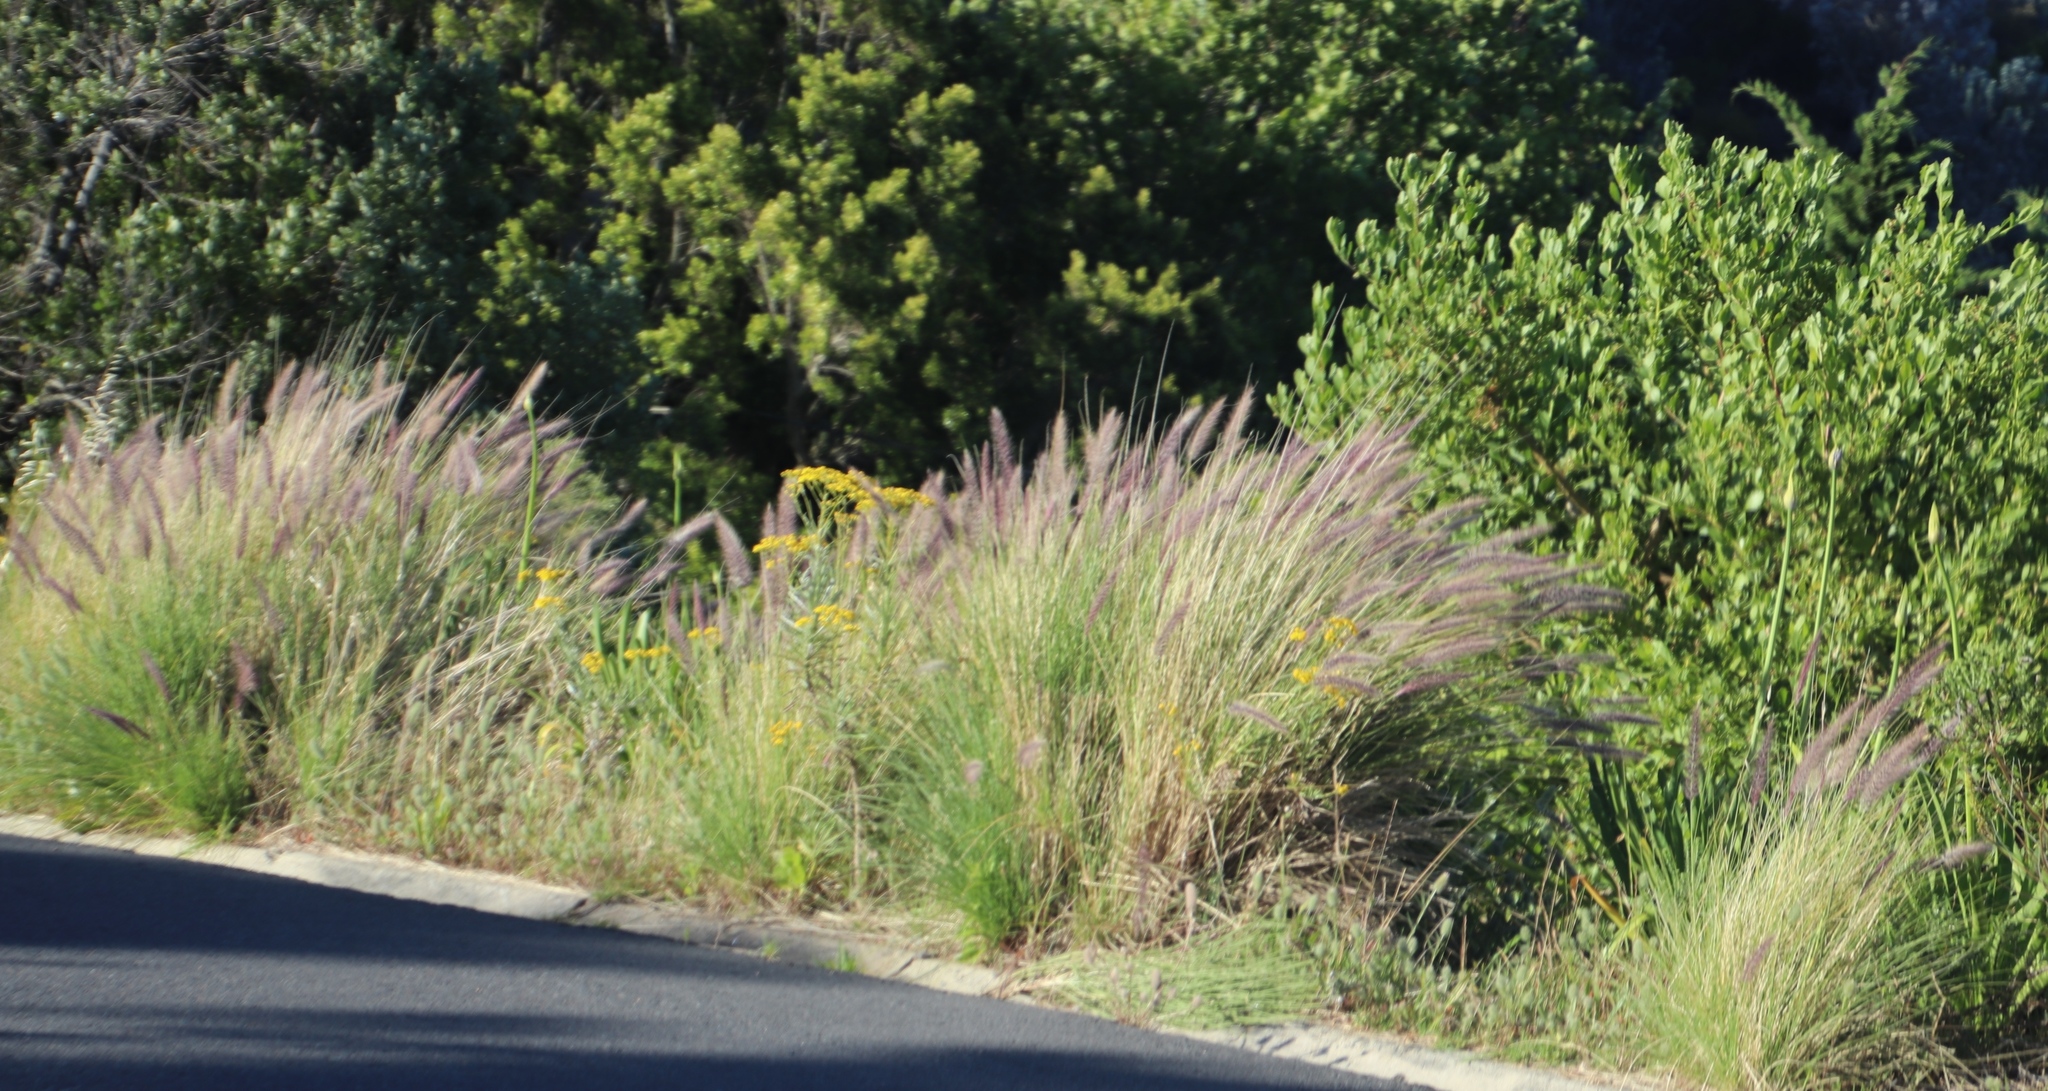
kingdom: Plantae
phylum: Tracheophyta
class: Liliopsida
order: Poales
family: Poaceae
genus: Cenchrus
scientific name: Cenchrus setaceus
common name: Crimson fountaingrass
